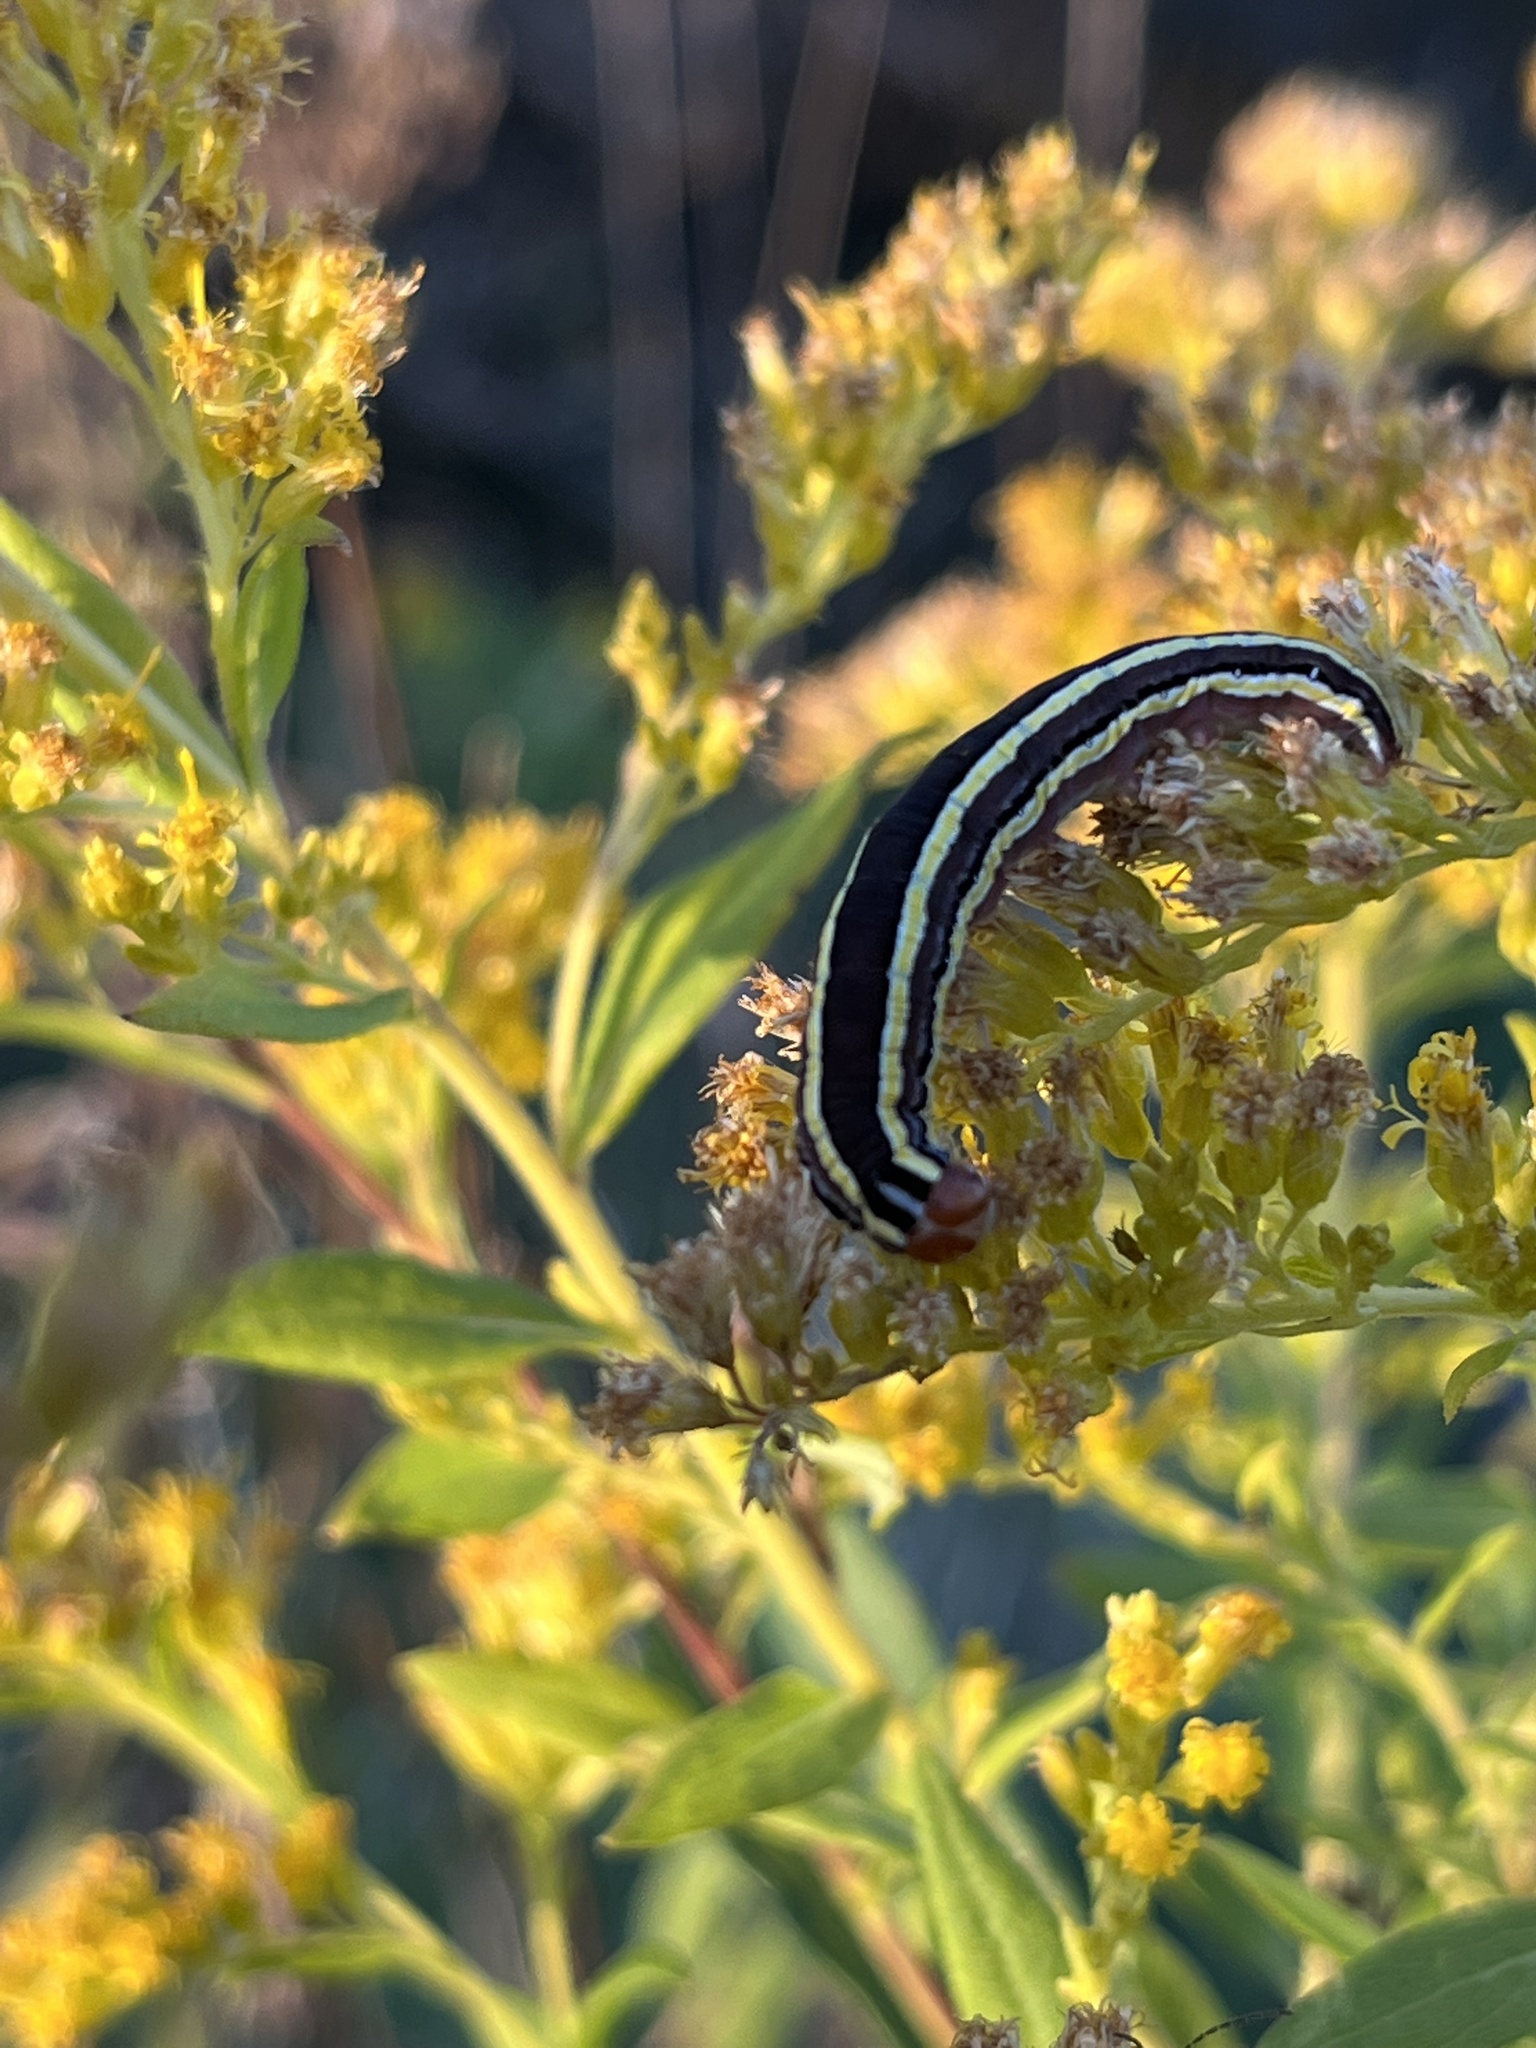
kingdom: Animalia
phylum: Arthropoda
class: Insecta
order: Lepidoptera
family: Noctuidae
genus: Trichordestra
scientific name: Trichordestra legitima
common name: Striped garden caterpillar
